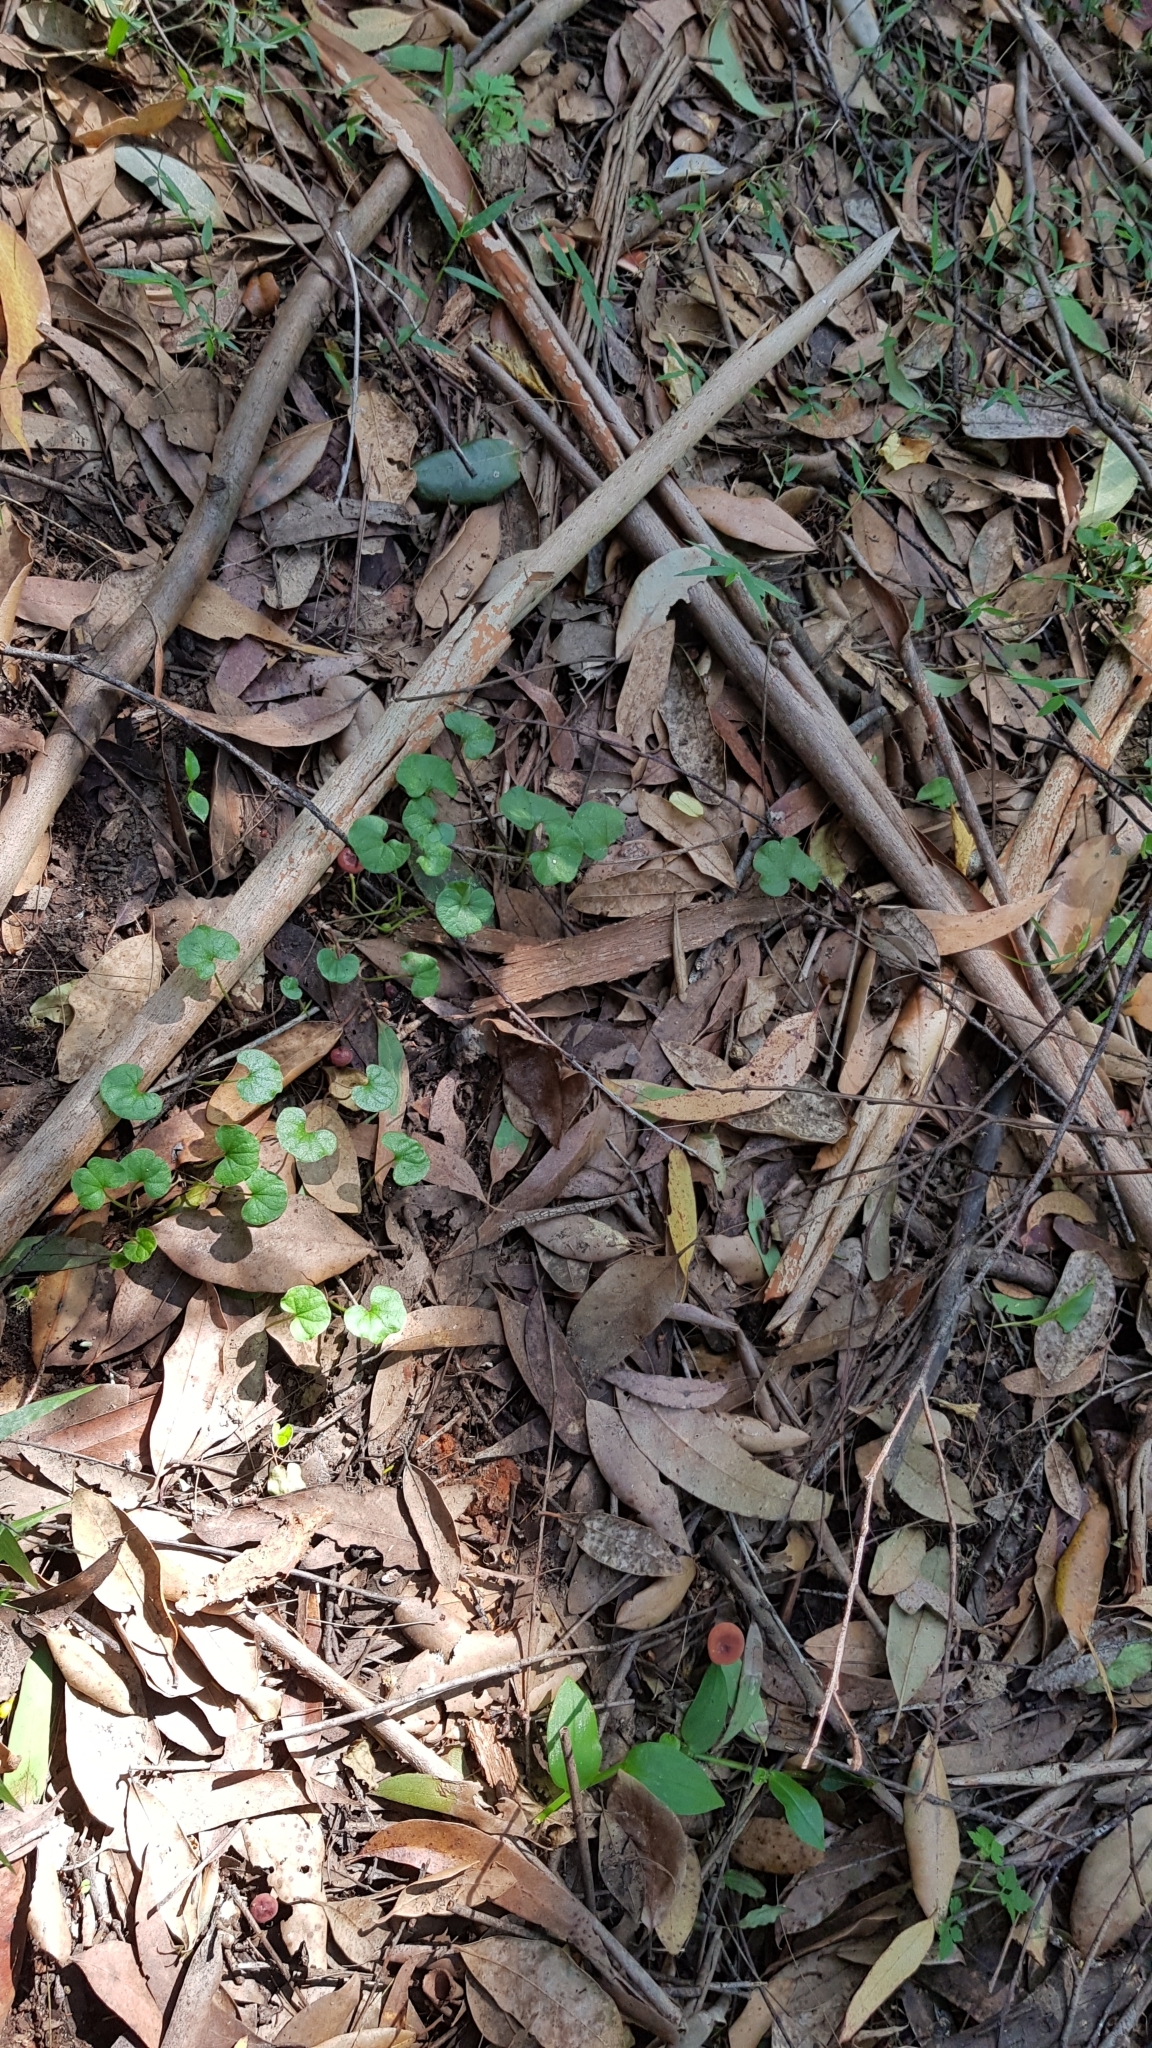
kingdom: Fungi
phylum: Basidiomycota
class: Agaricomycetes
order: Russulales
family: Russulaceae
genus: Lactarius
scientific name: Lactarius eucalypti
